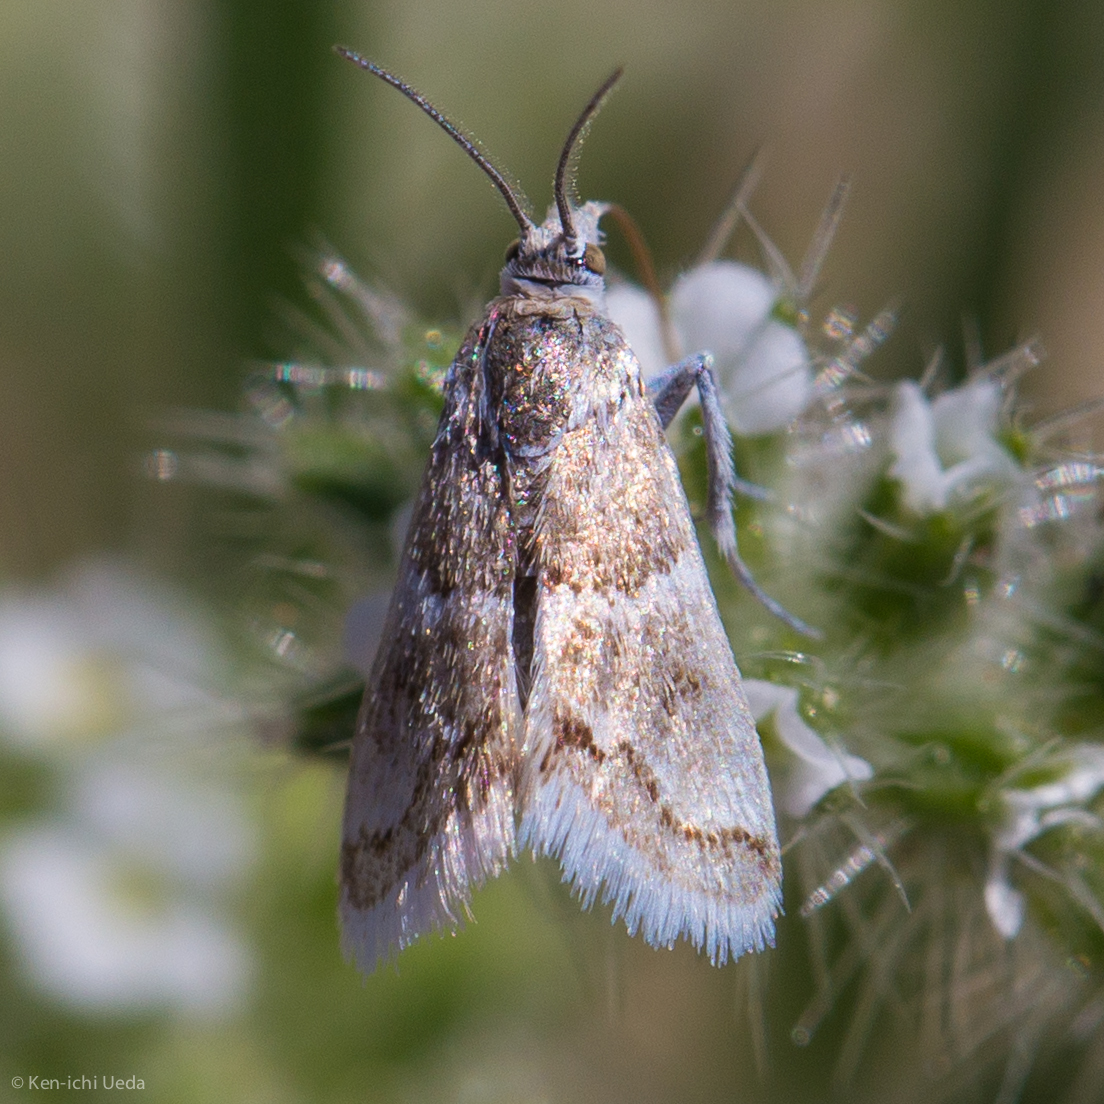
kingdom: Animalia
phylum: Arthropoda
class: Insecta
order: Lepidoptera
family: Crambidae
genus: Nannobotys
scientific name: Nannobotys commortalis
